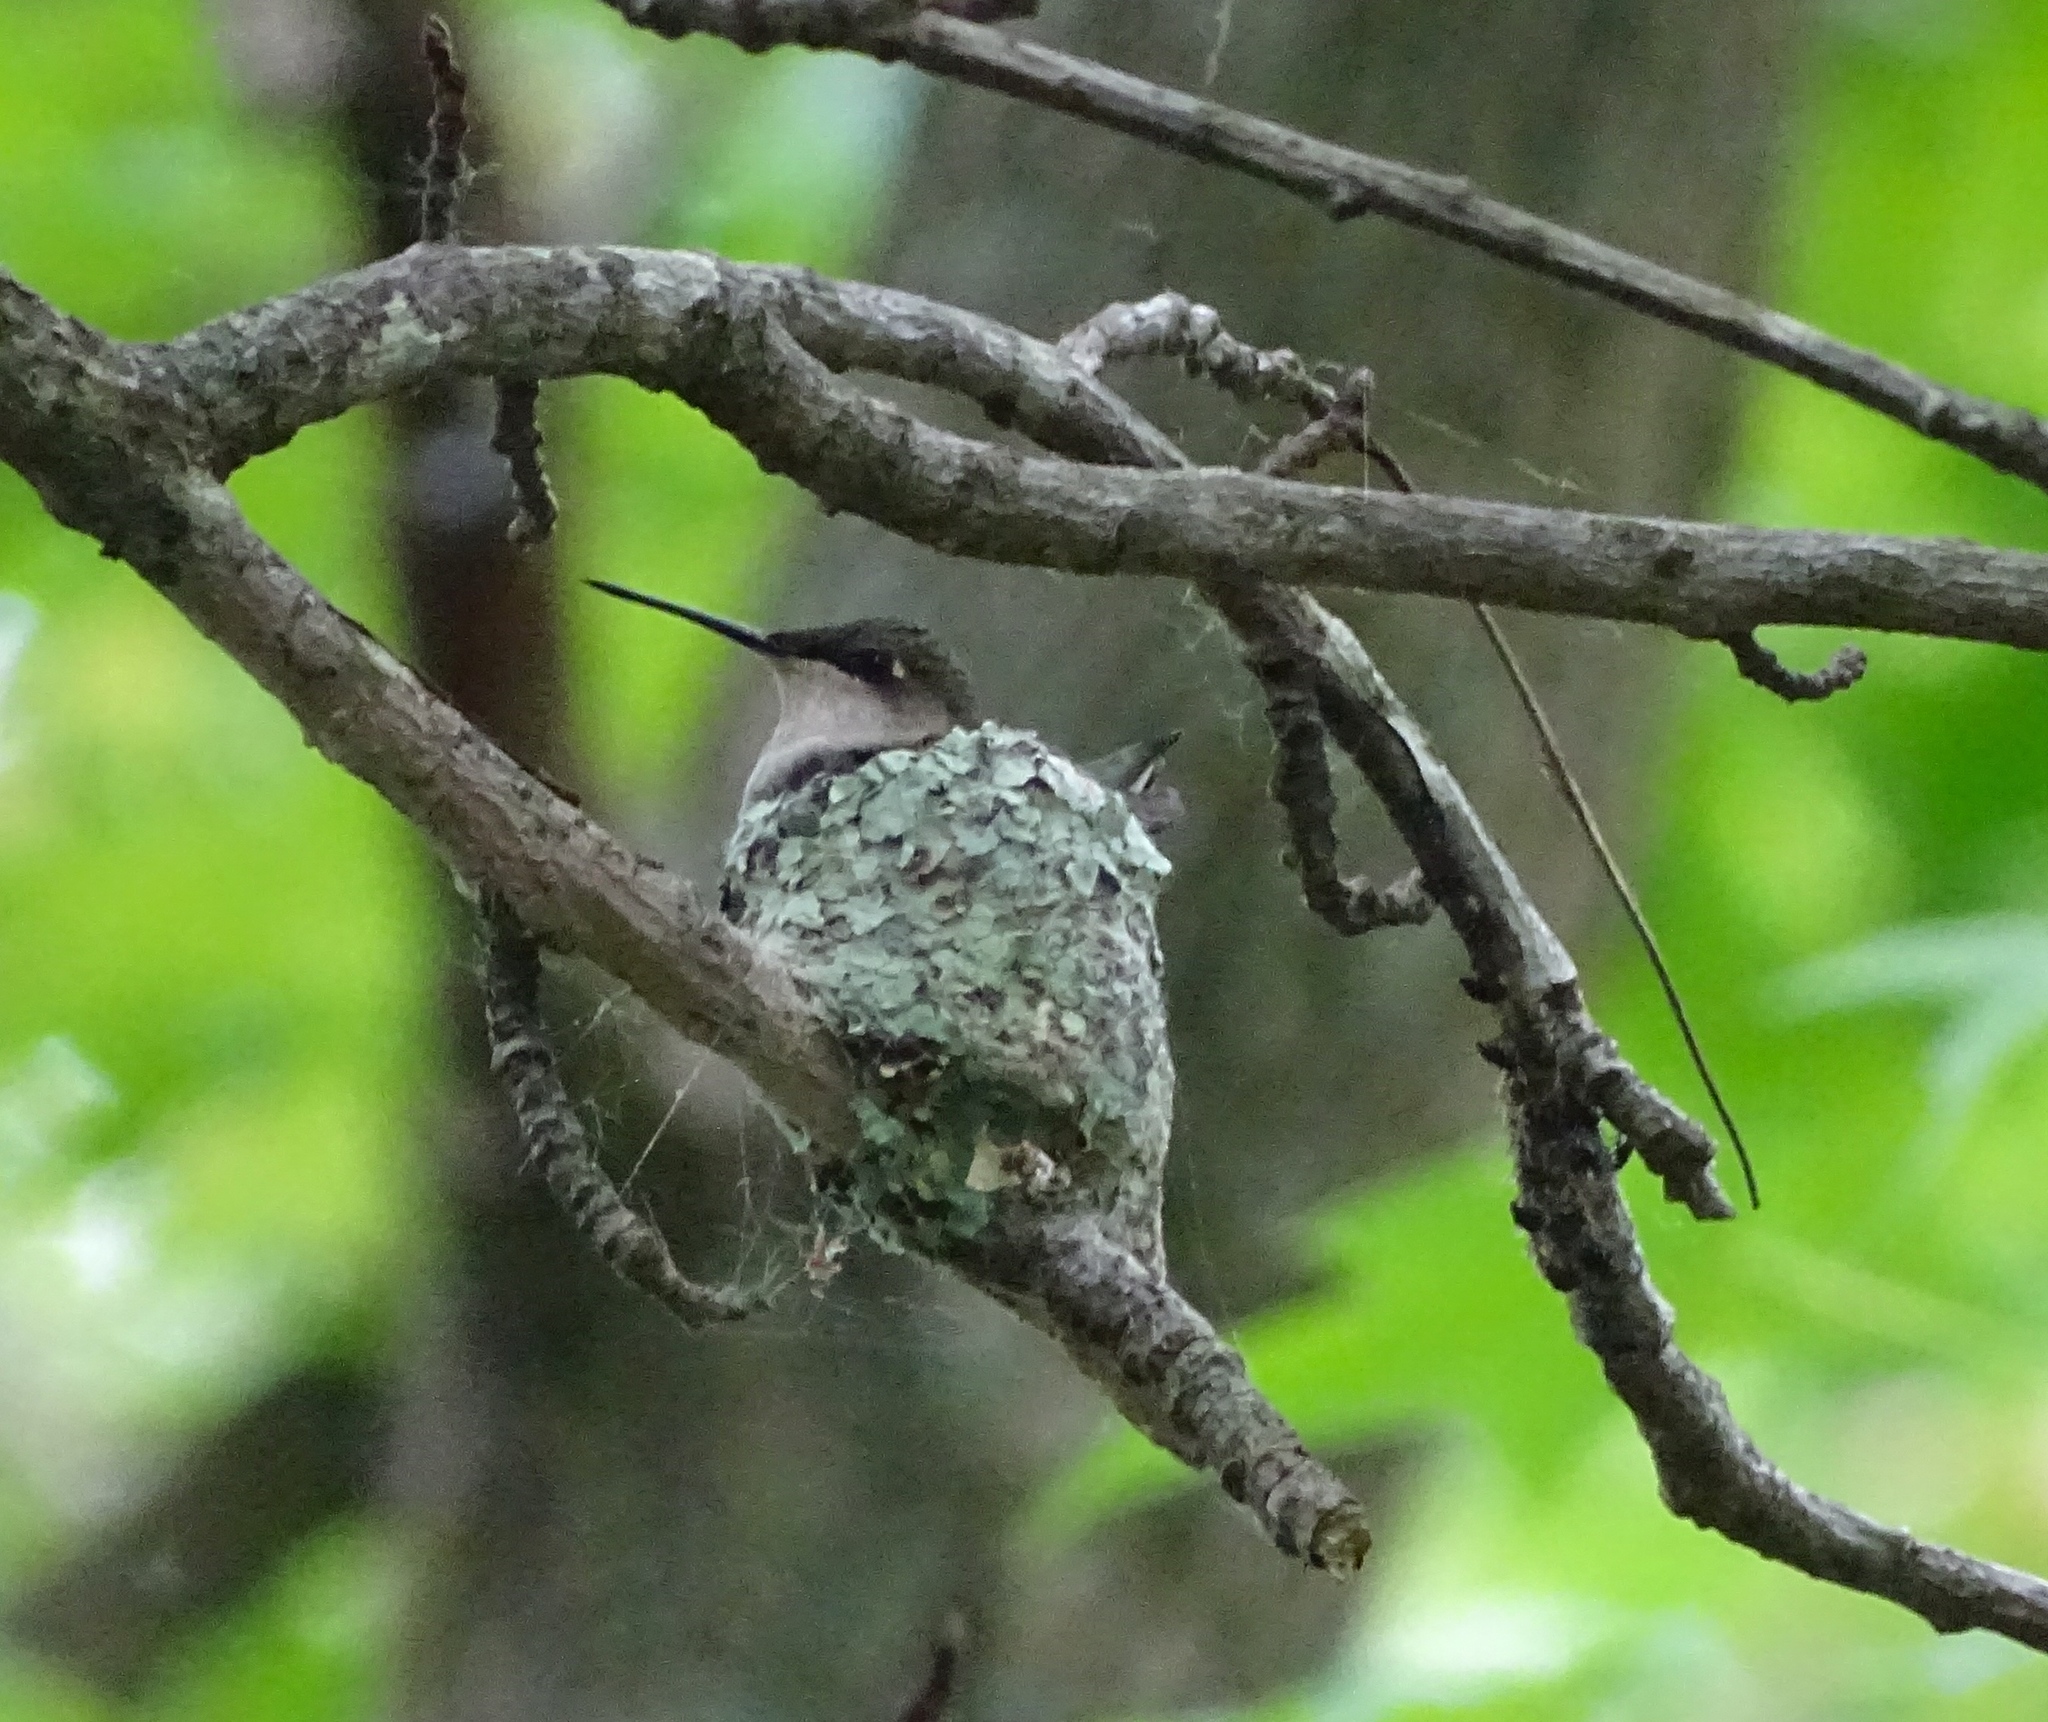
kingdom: Animalia
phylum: Chordata
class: Aves
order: Apodiformes
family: Trochilidae
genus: Archilochus
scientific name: Archilochus colubris
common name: Ruby-throated hummingbird
